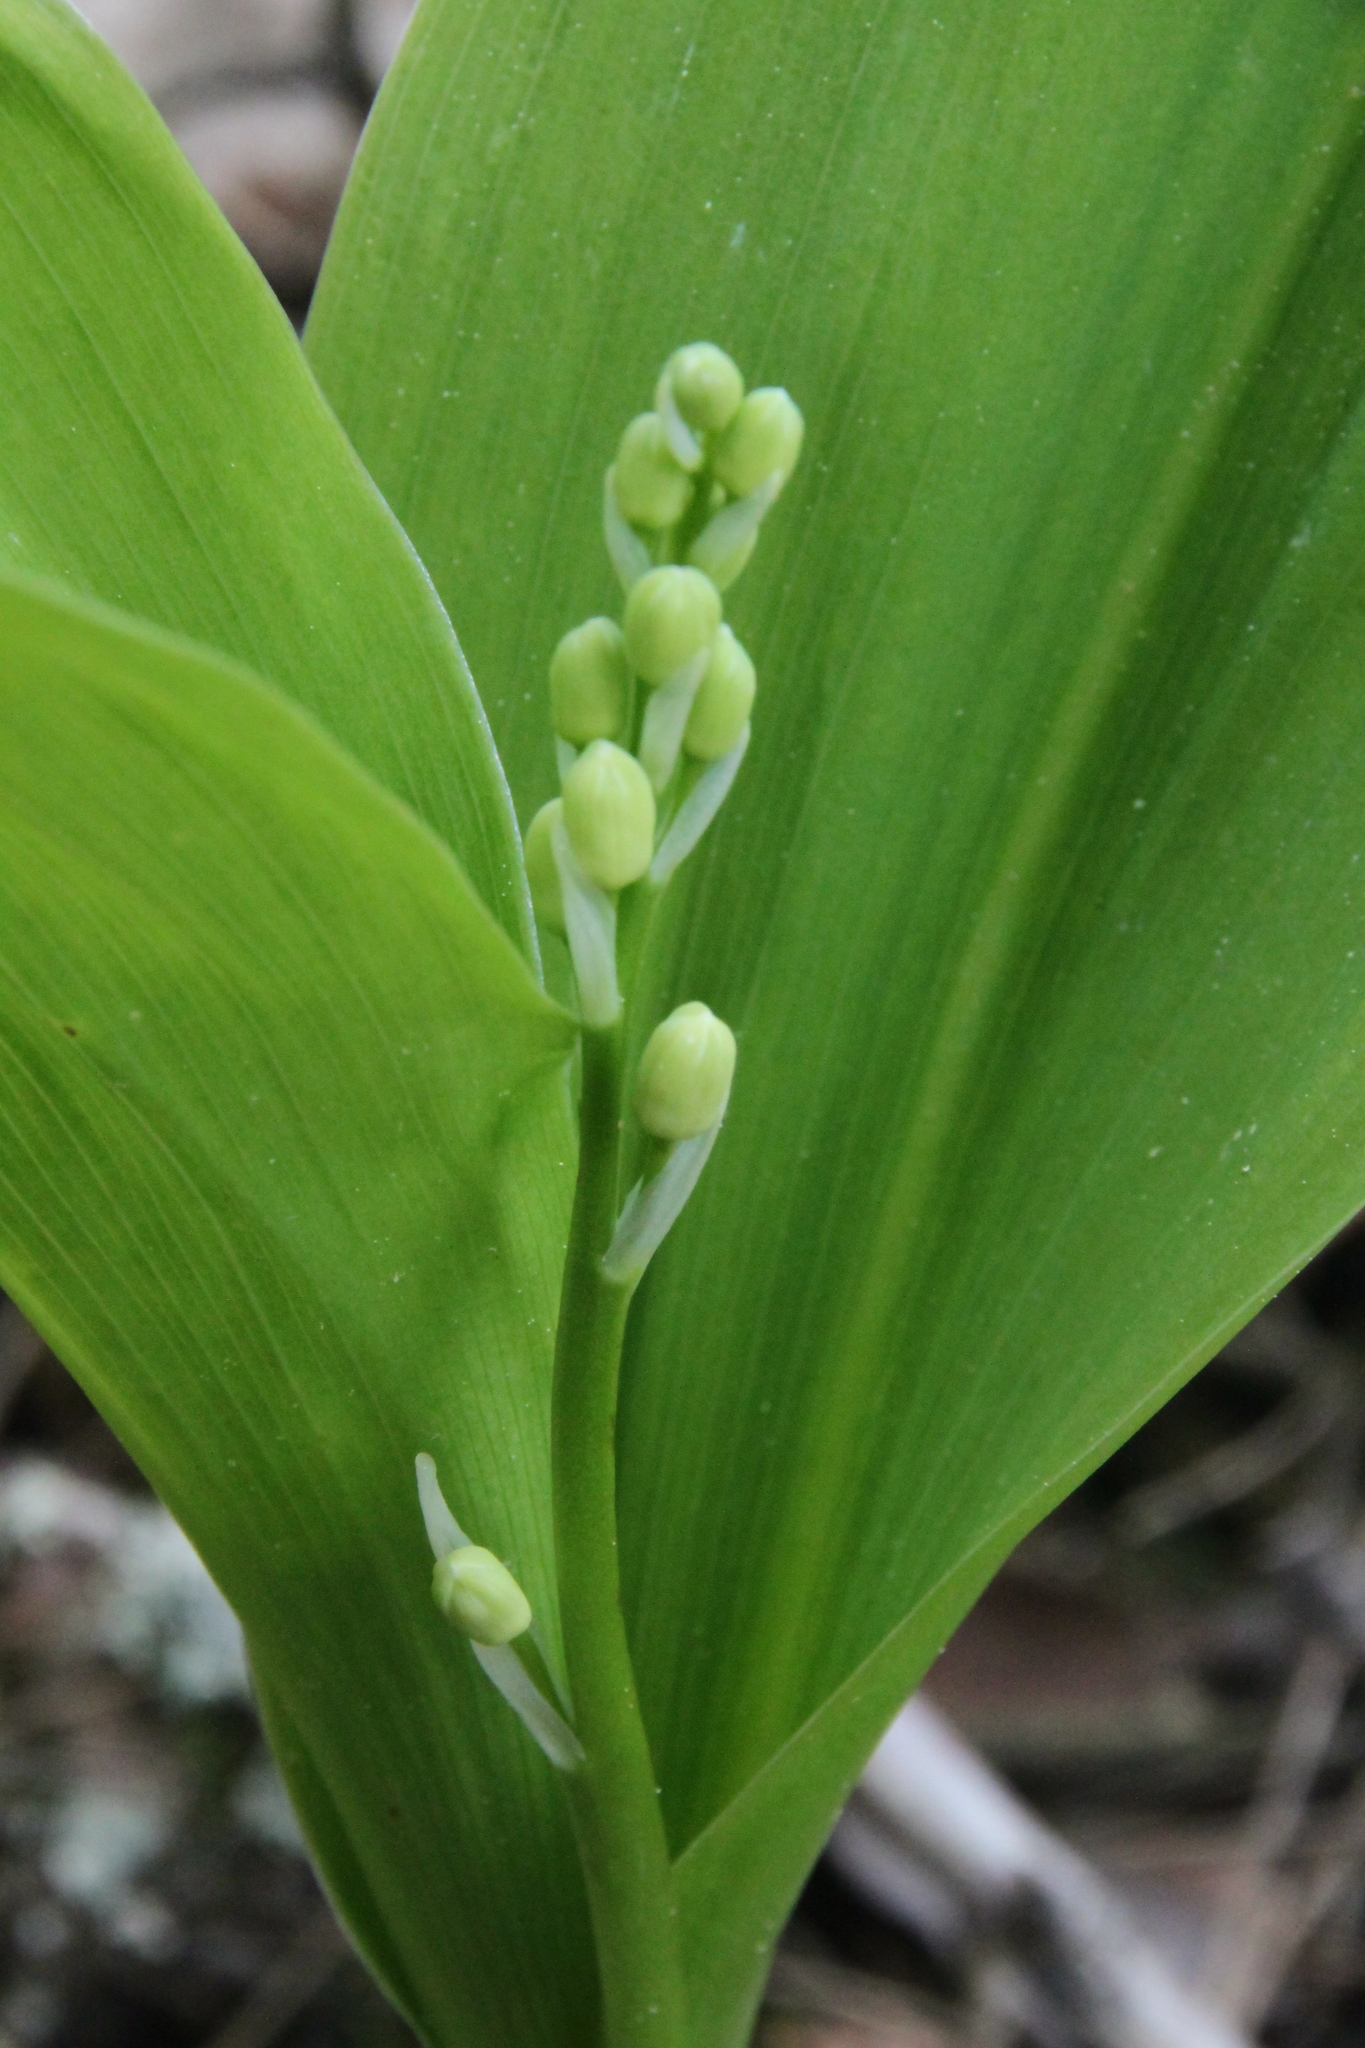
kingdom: Plantae
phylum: Tracheophyta
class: Liliopsida
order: Asparagales
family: Asparagaceae
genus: Convallaria
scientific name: Convallaria majalis
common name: Lily-of-the-valley
